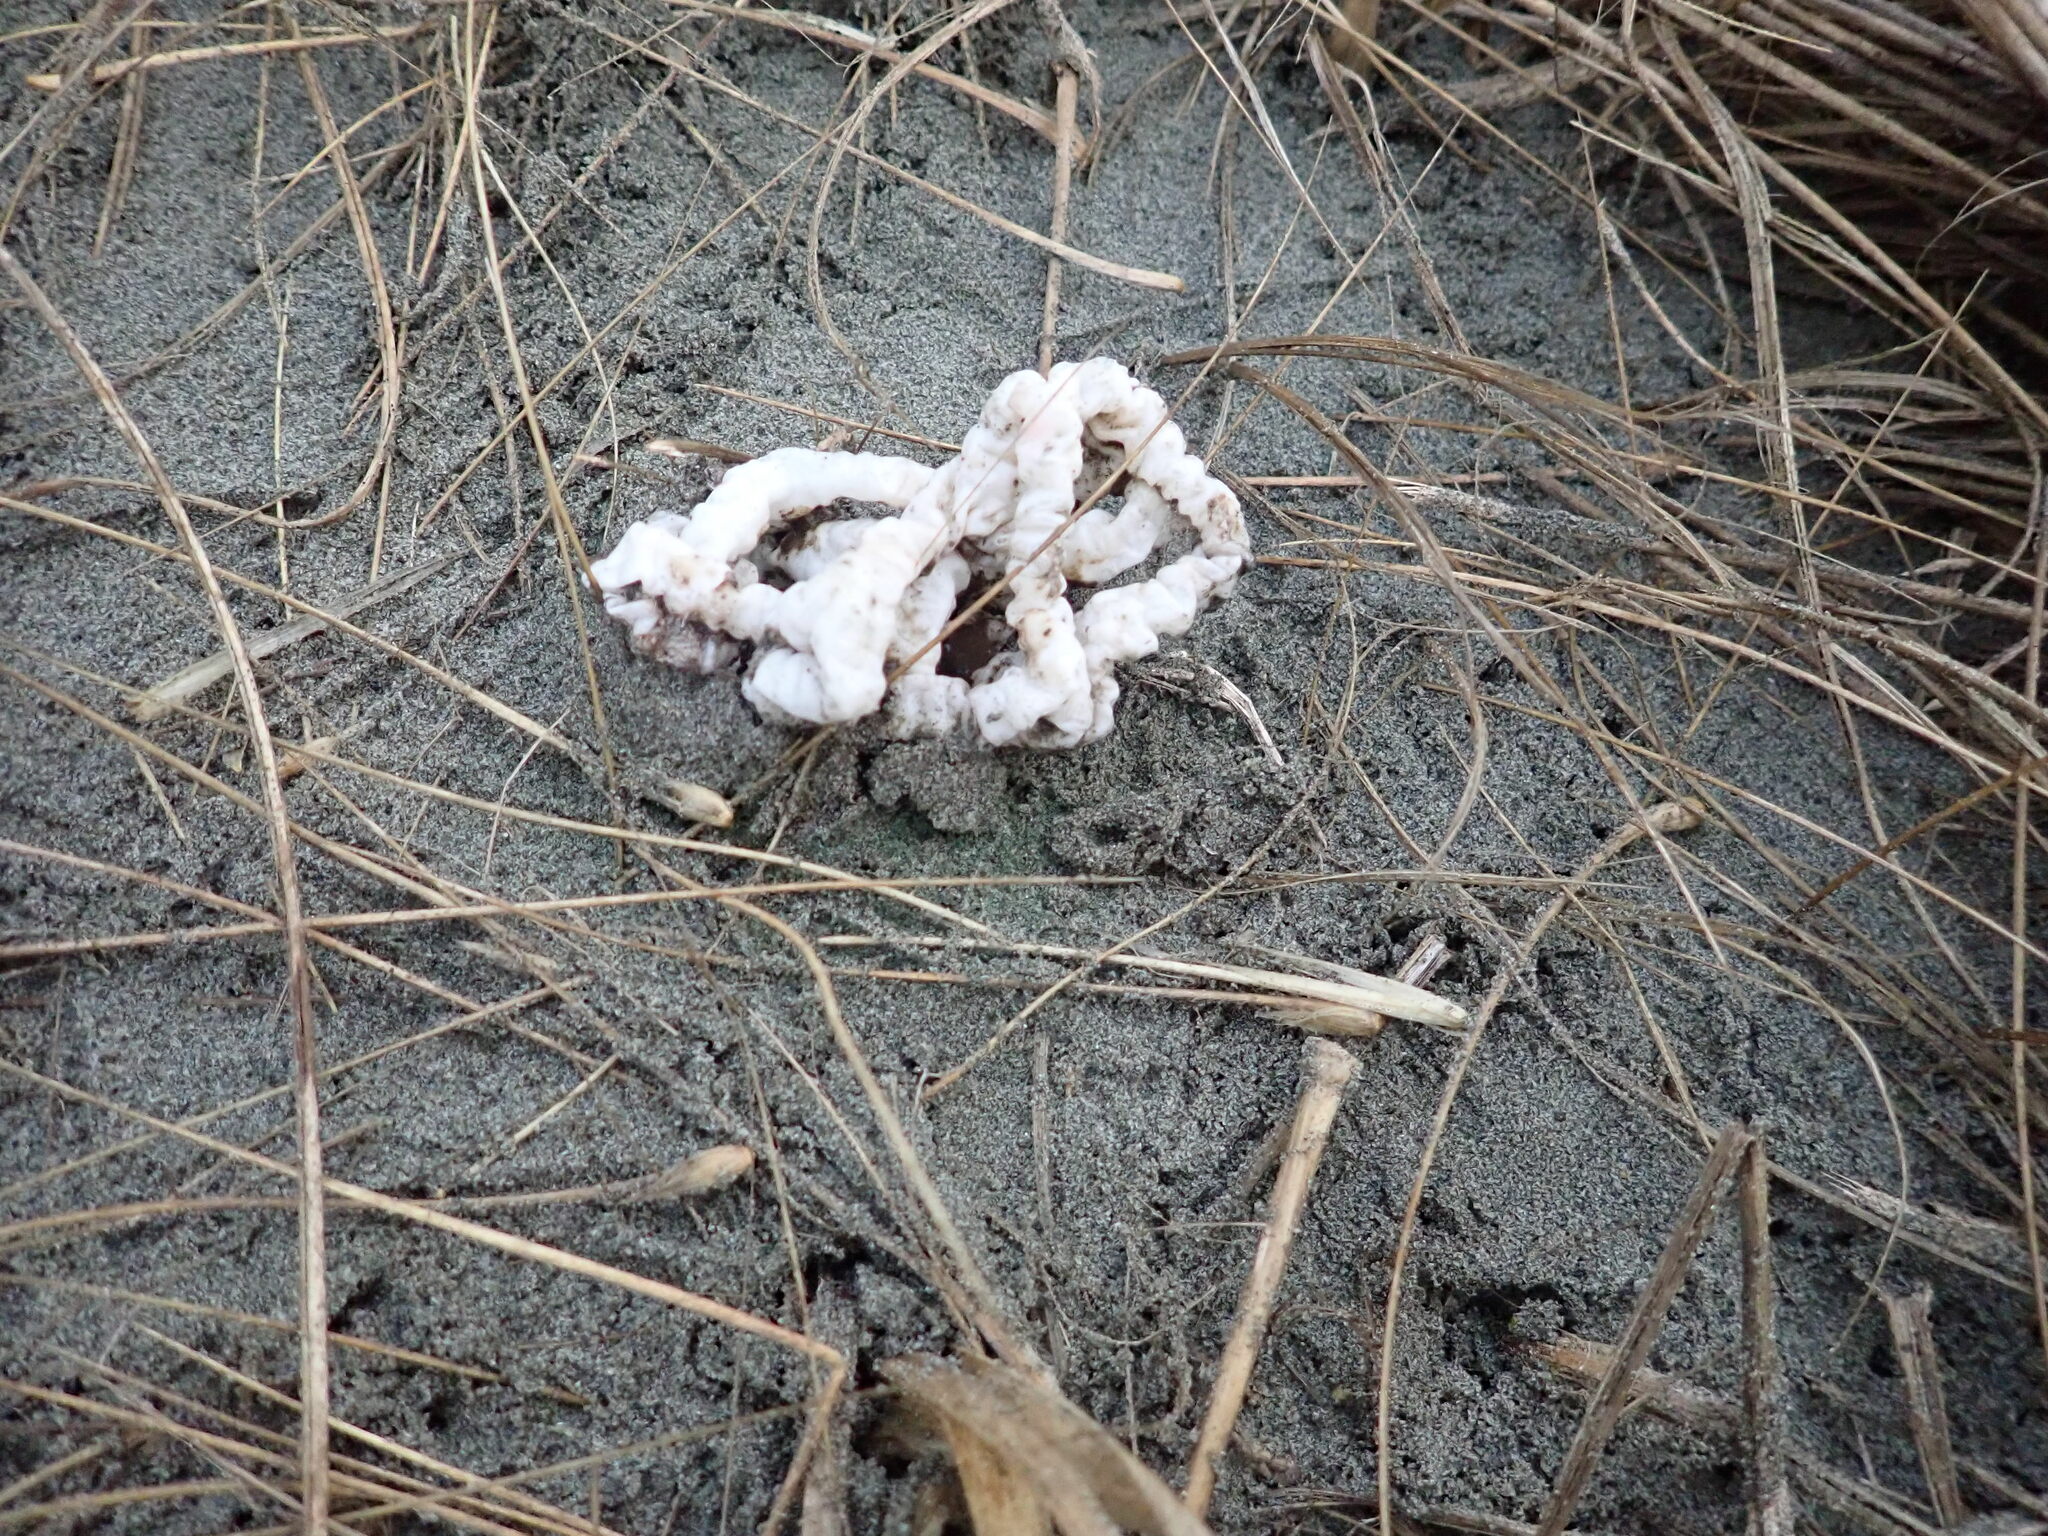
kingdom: Fungi
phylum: Basidiomycota
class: Agaricomycetes
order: Phallales
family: Phallaceae
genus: Ileodictyon
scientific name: Ileodictyon cibarium
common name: Basket fungus
